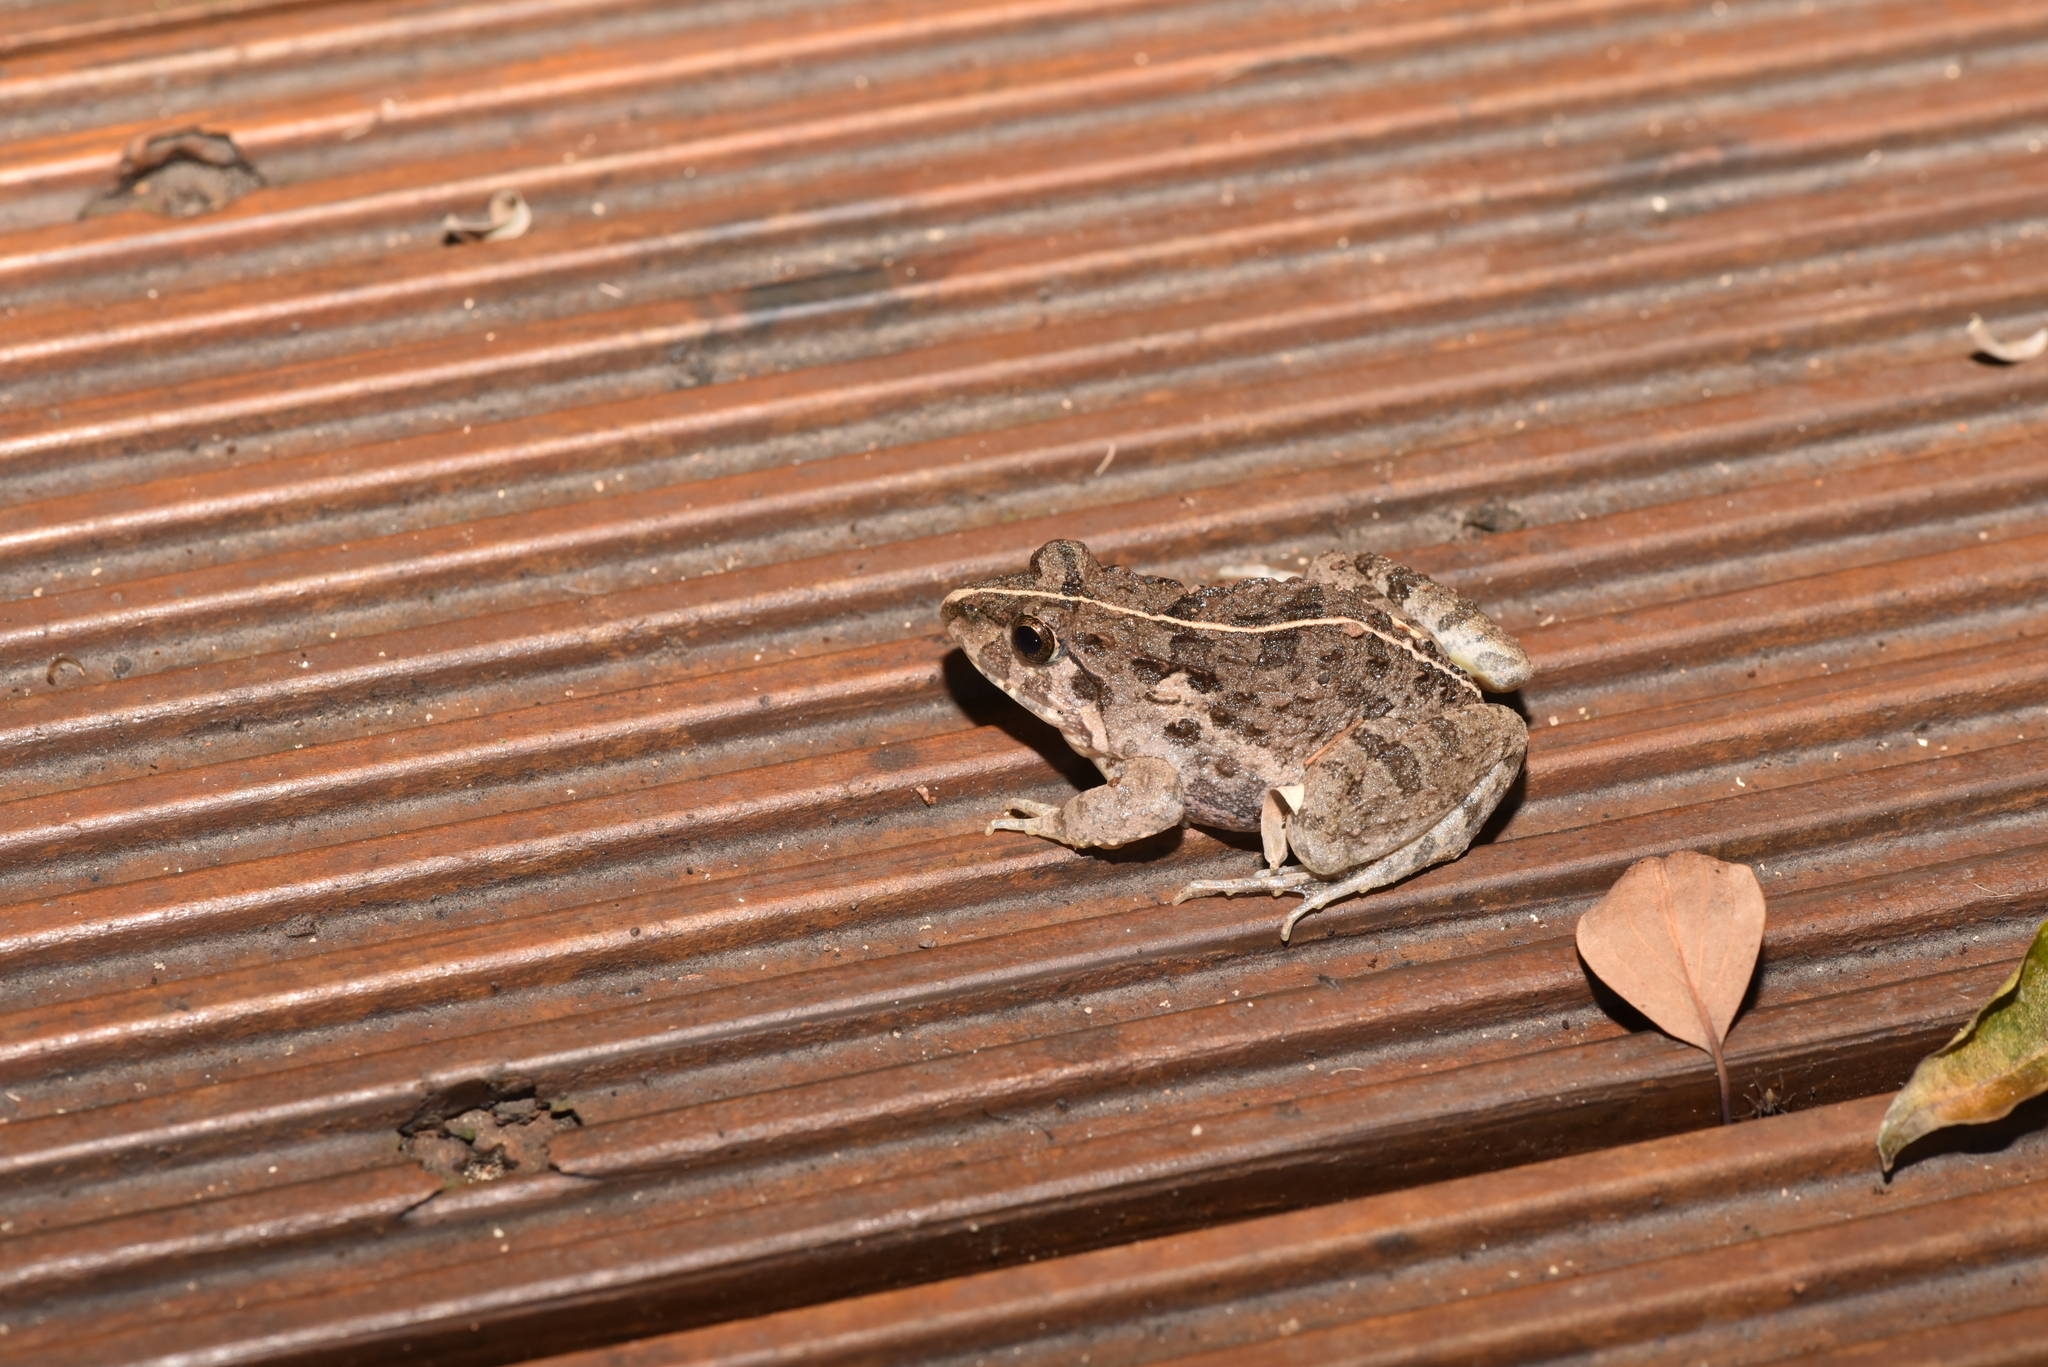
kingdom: Animalia
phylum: Chordata
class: Amphibia
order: Anura
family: Dicroglossidae
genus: Fejervarya
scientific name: Fejervarya limnocharis
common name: Asian grass frog/common pond frog/field frog/grass frog/indian rice frog
